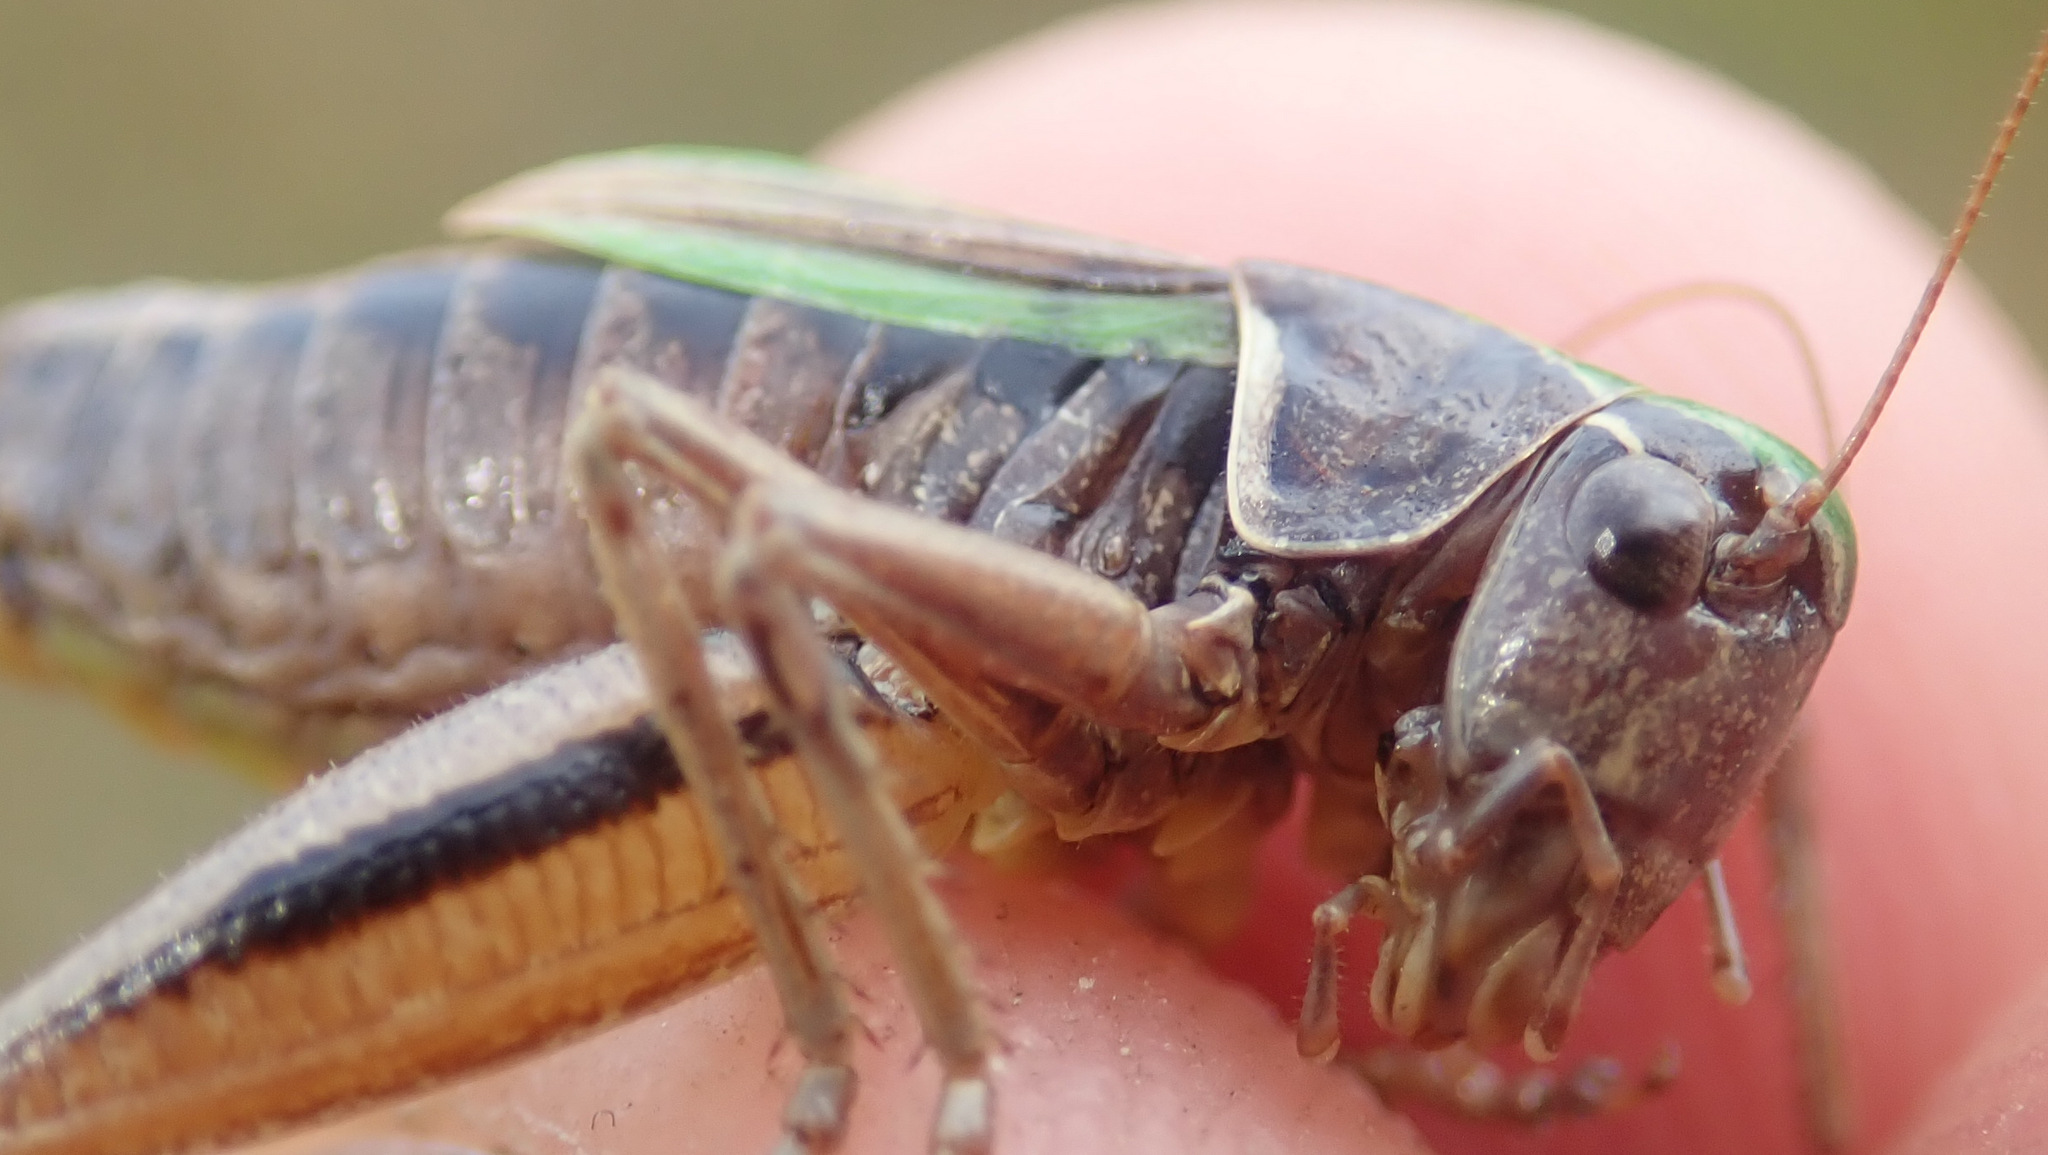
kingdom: Animalia
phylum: Arthropoda
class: Insecta
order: Orthoptera
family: Tettigoniidae
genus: Metrioptera
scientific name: Metrioptera brachyptera
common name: Bog bush-cricket
